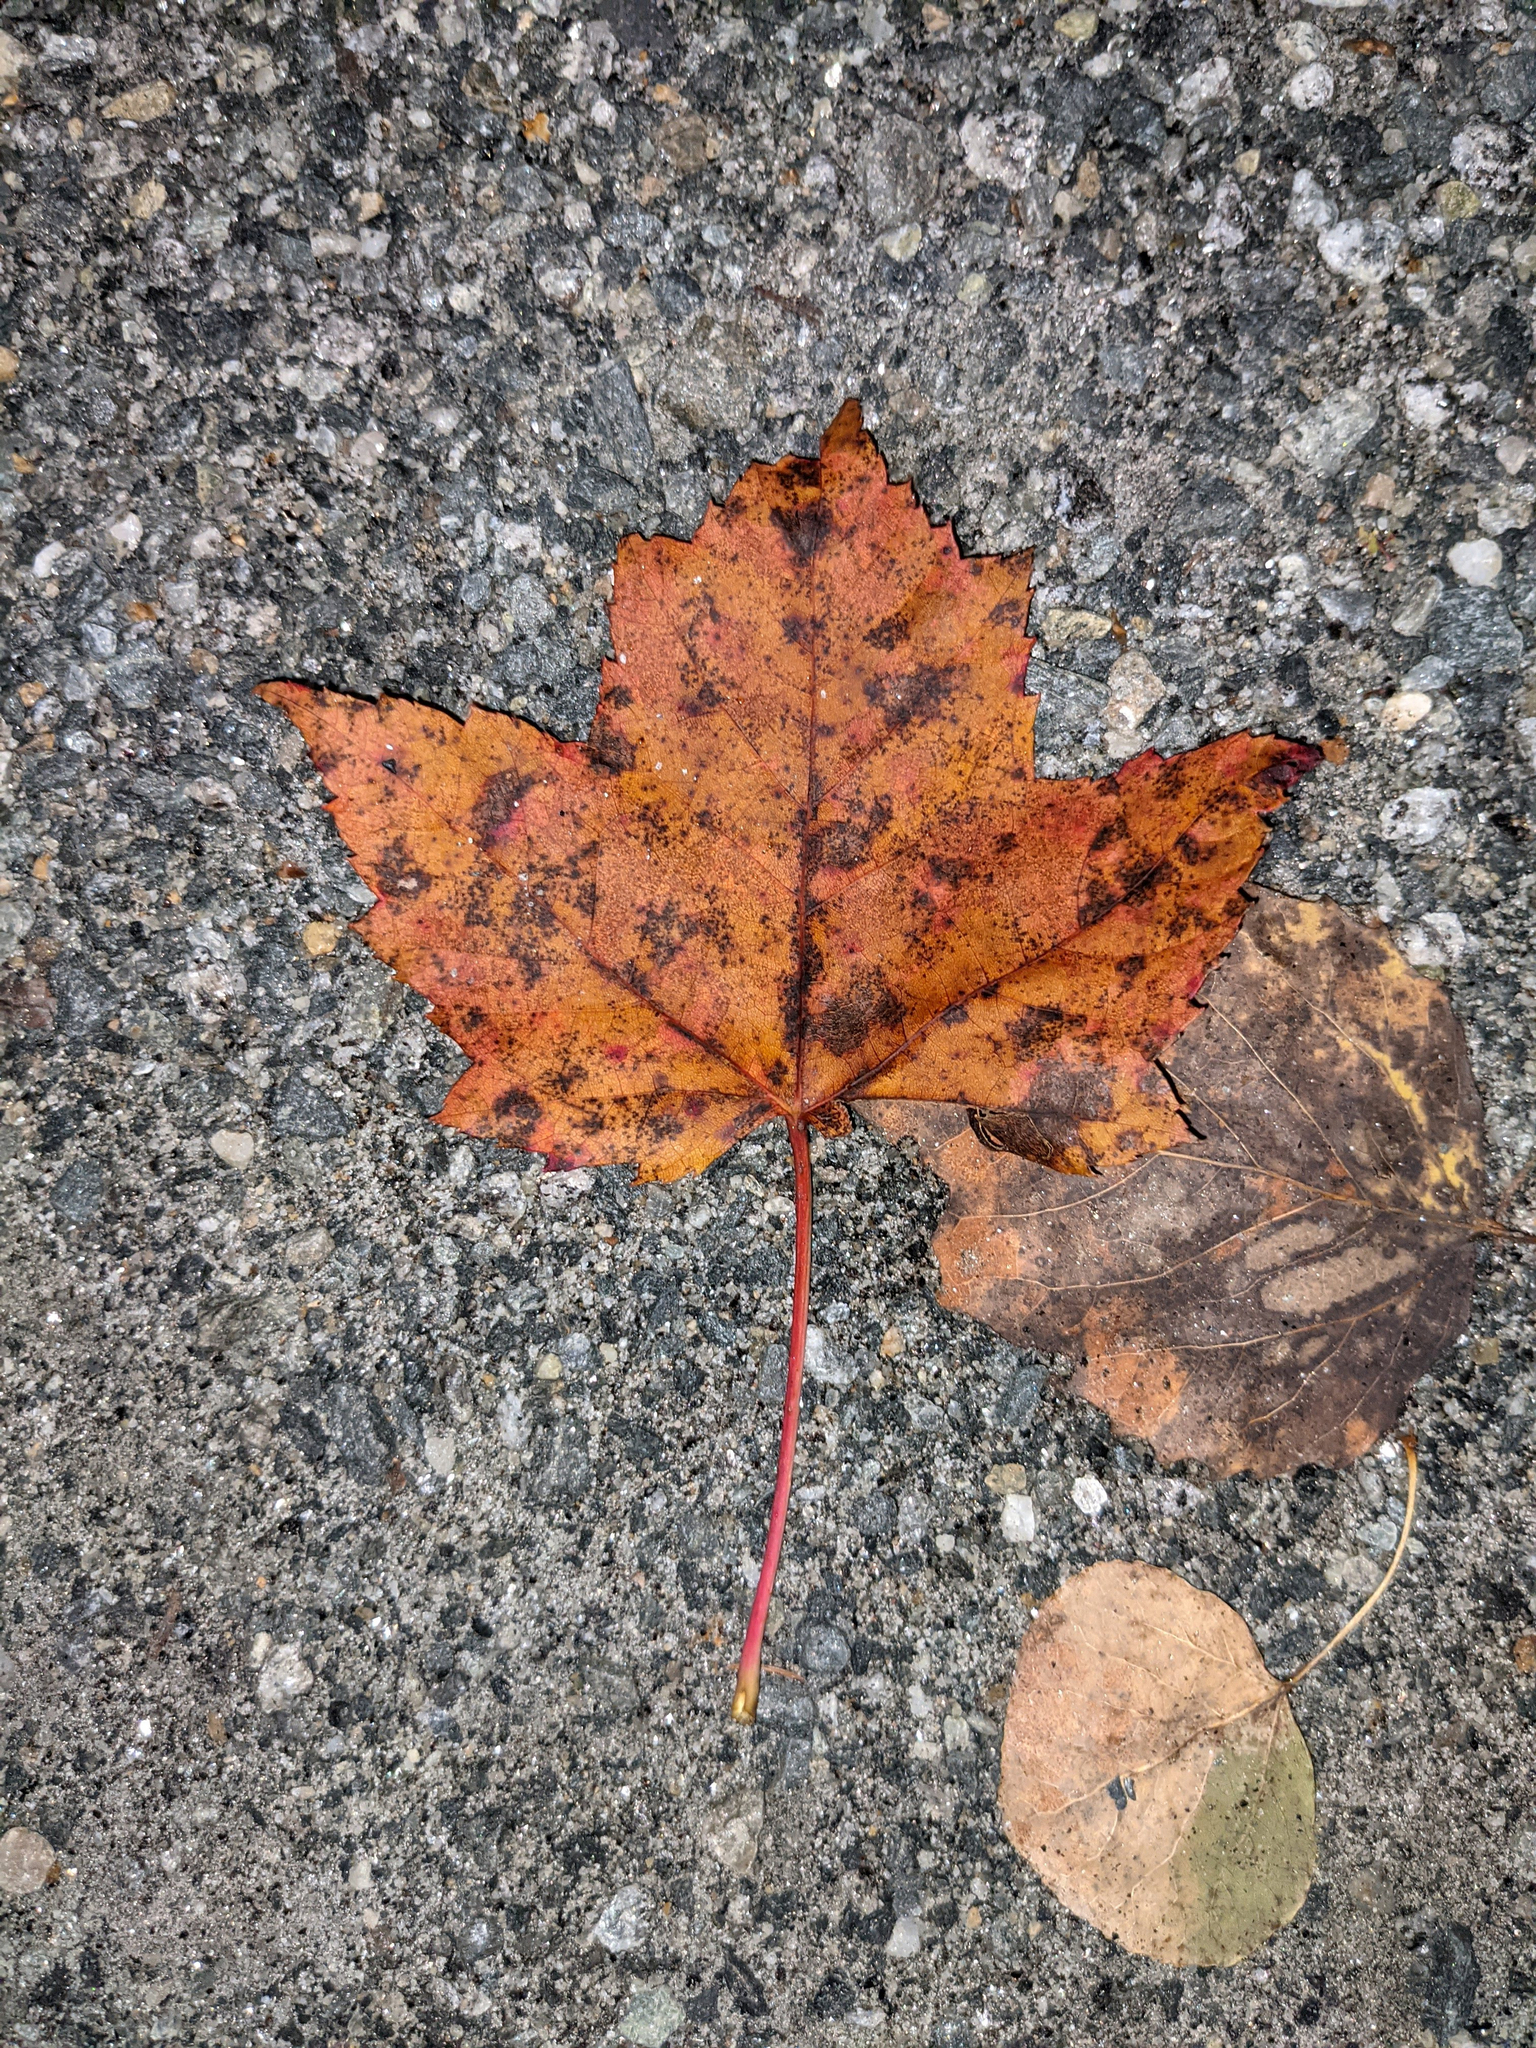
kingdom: Plantae
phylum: Tracheophyta
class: Magnoliopsida
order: Sapindales
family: Sapindaceae
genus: Acer
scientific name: Acer rubrum
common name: Red maple
